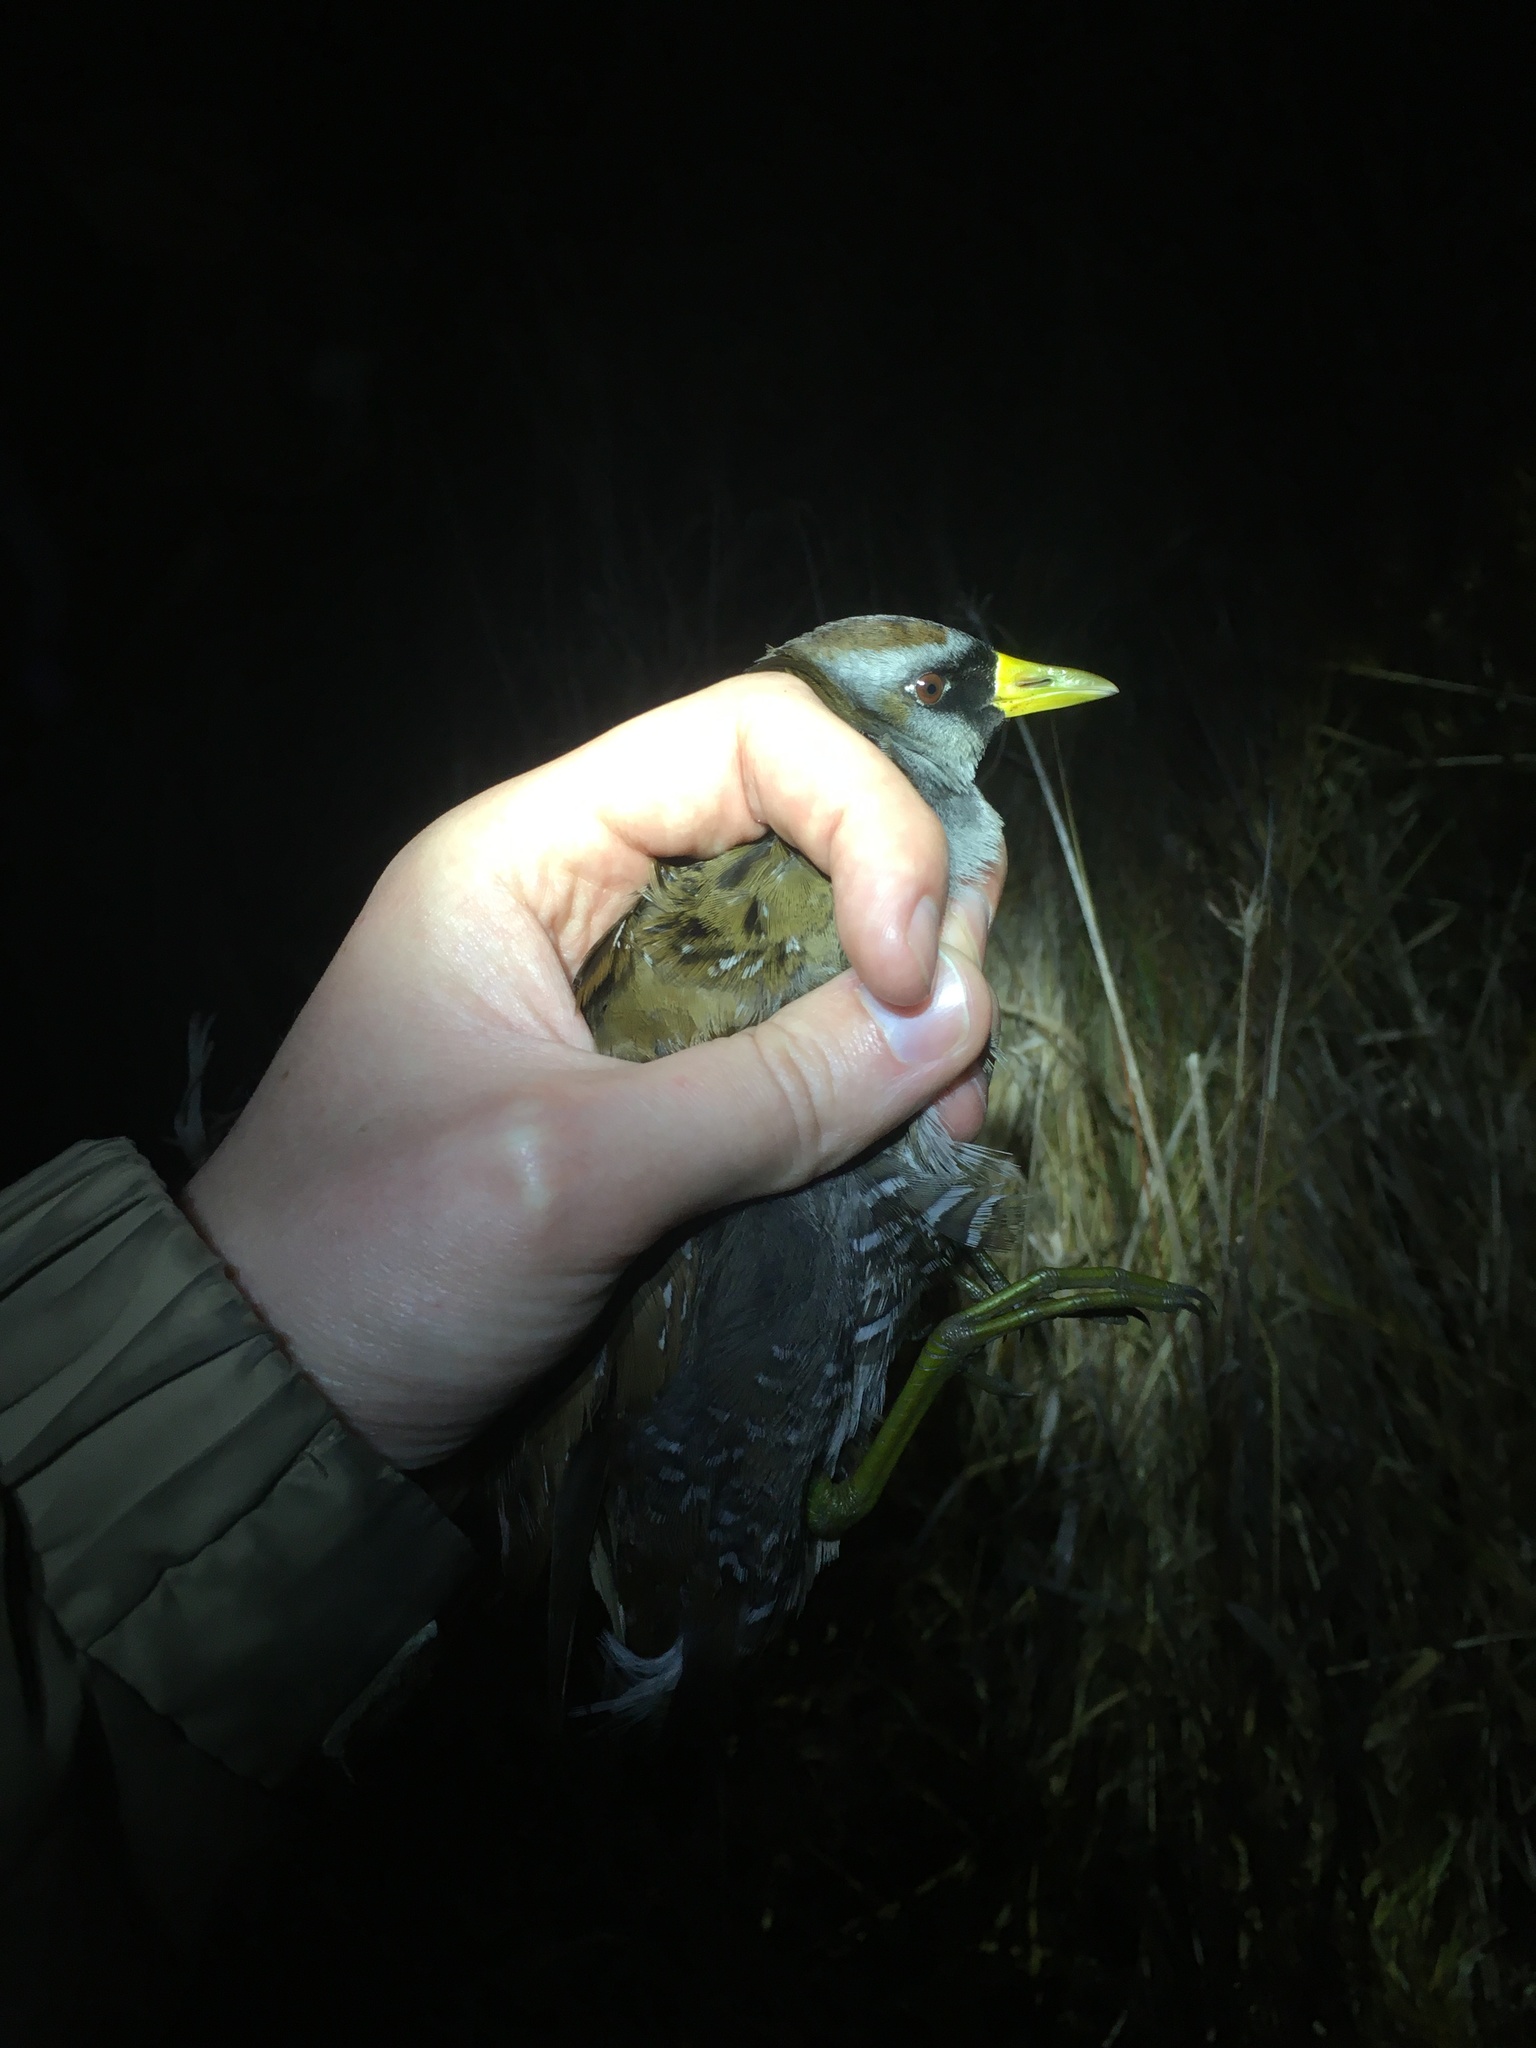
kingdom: Animalia
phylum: Chordata
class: Aves
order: Gruiformes
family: Rallidae
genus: Porzana
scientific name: Porzana carolina
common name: Sora
